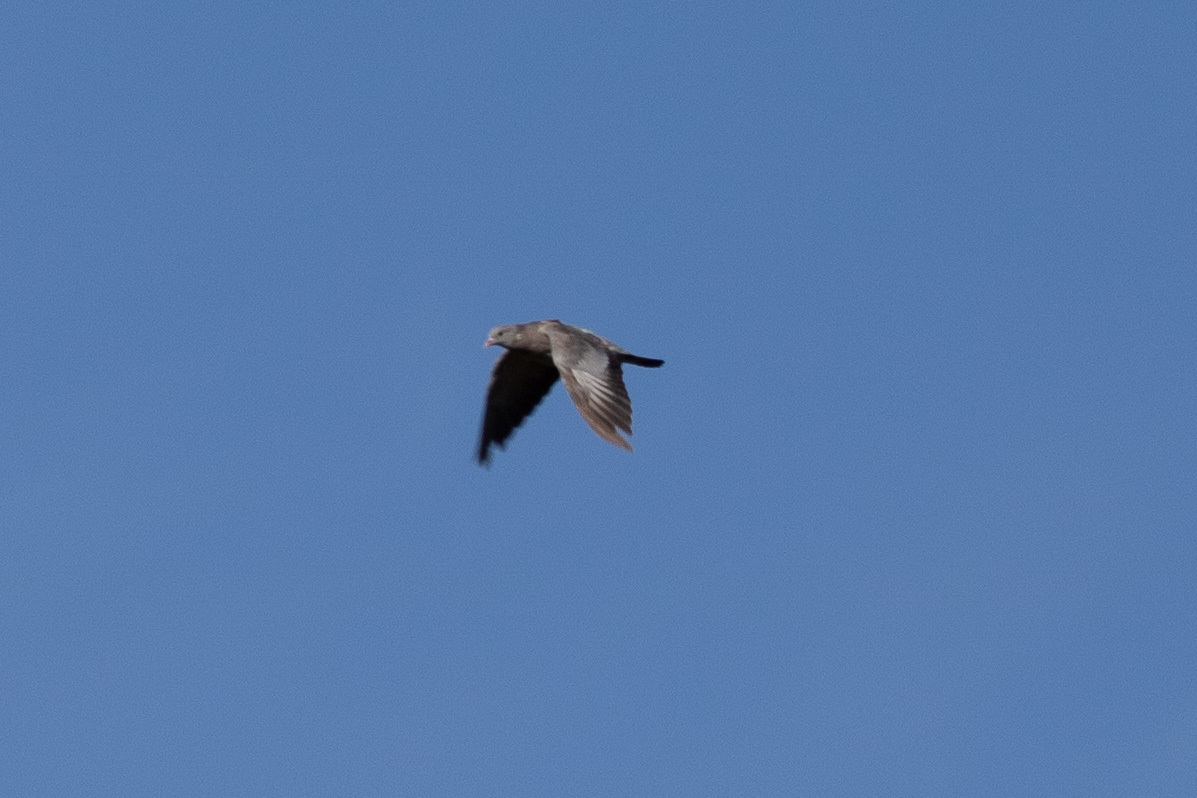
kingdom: Animalia
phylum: Chordata
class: Aves
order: Columbiformes
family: Columbidae
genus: Columba
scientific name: Columba oenas
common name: Stock dove
